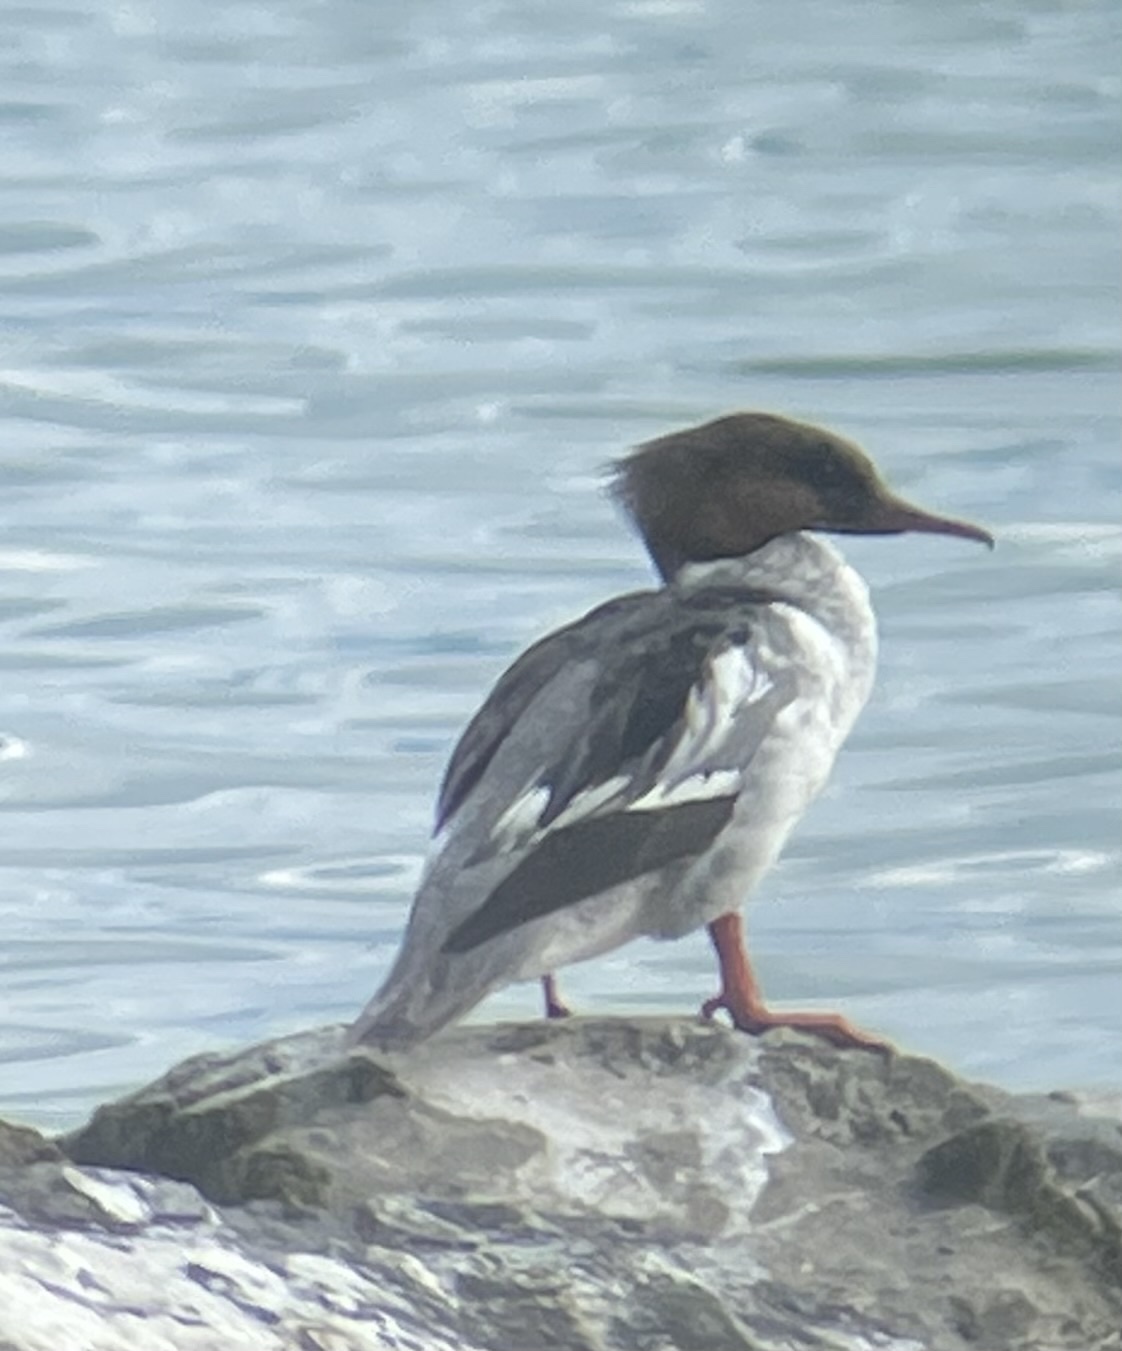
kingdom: Animalia
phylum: Chordata
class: Aves
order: Anseriformes
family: Anatidae
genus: Mergus
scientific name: Mergus merganser
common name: Common merganser
